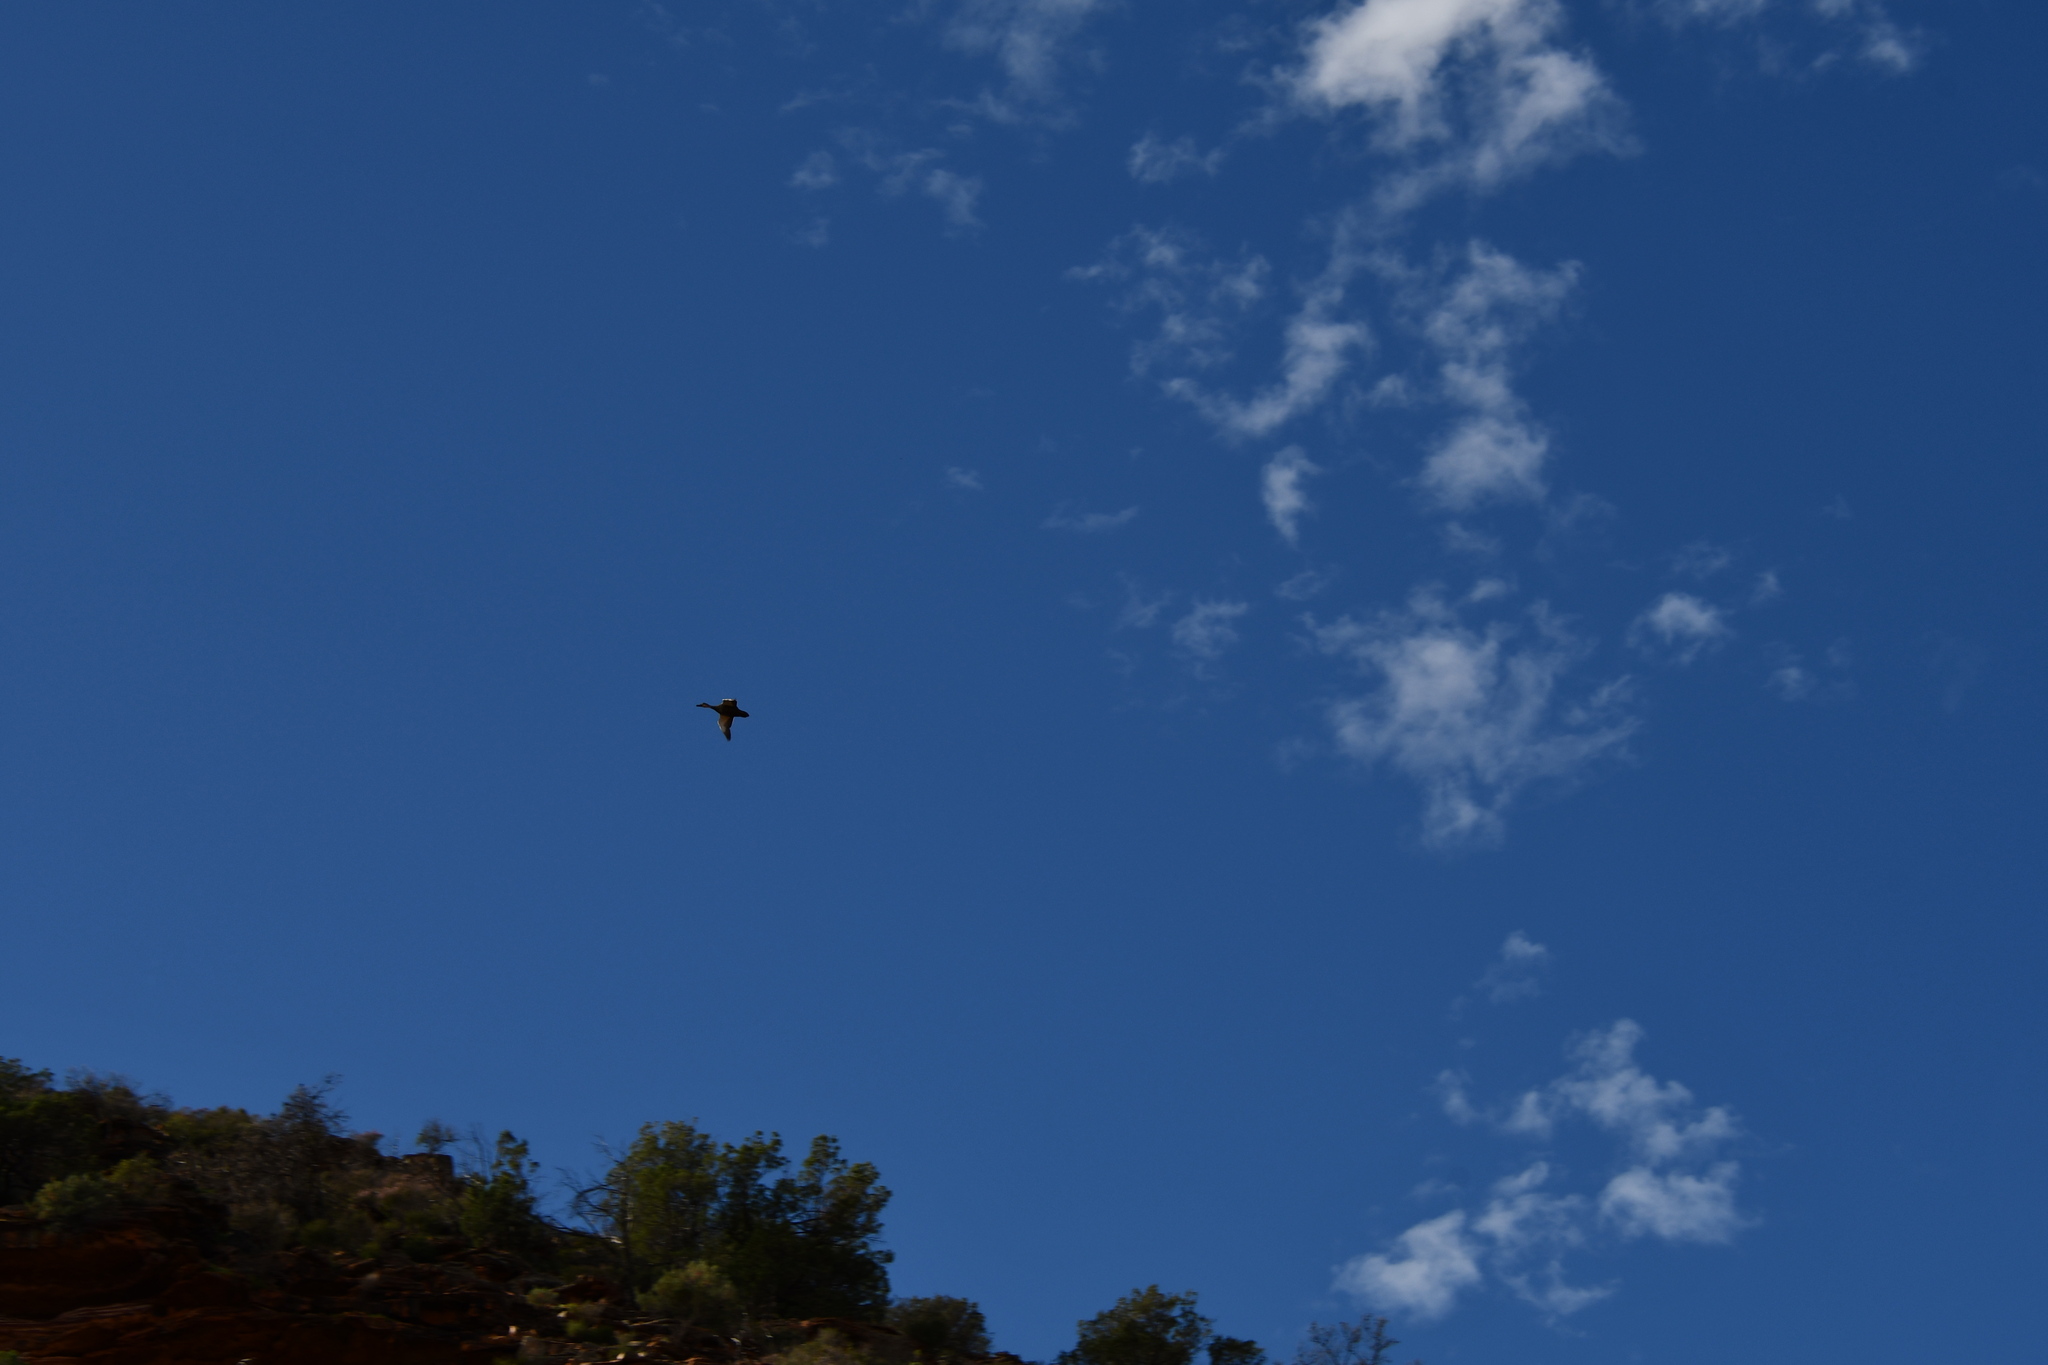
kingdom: Animalia
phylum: Chordata
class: Aves
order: Anseriformes
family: Anatidae
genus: Anas
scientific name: Anas superciliosa
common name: Pacific black duck
